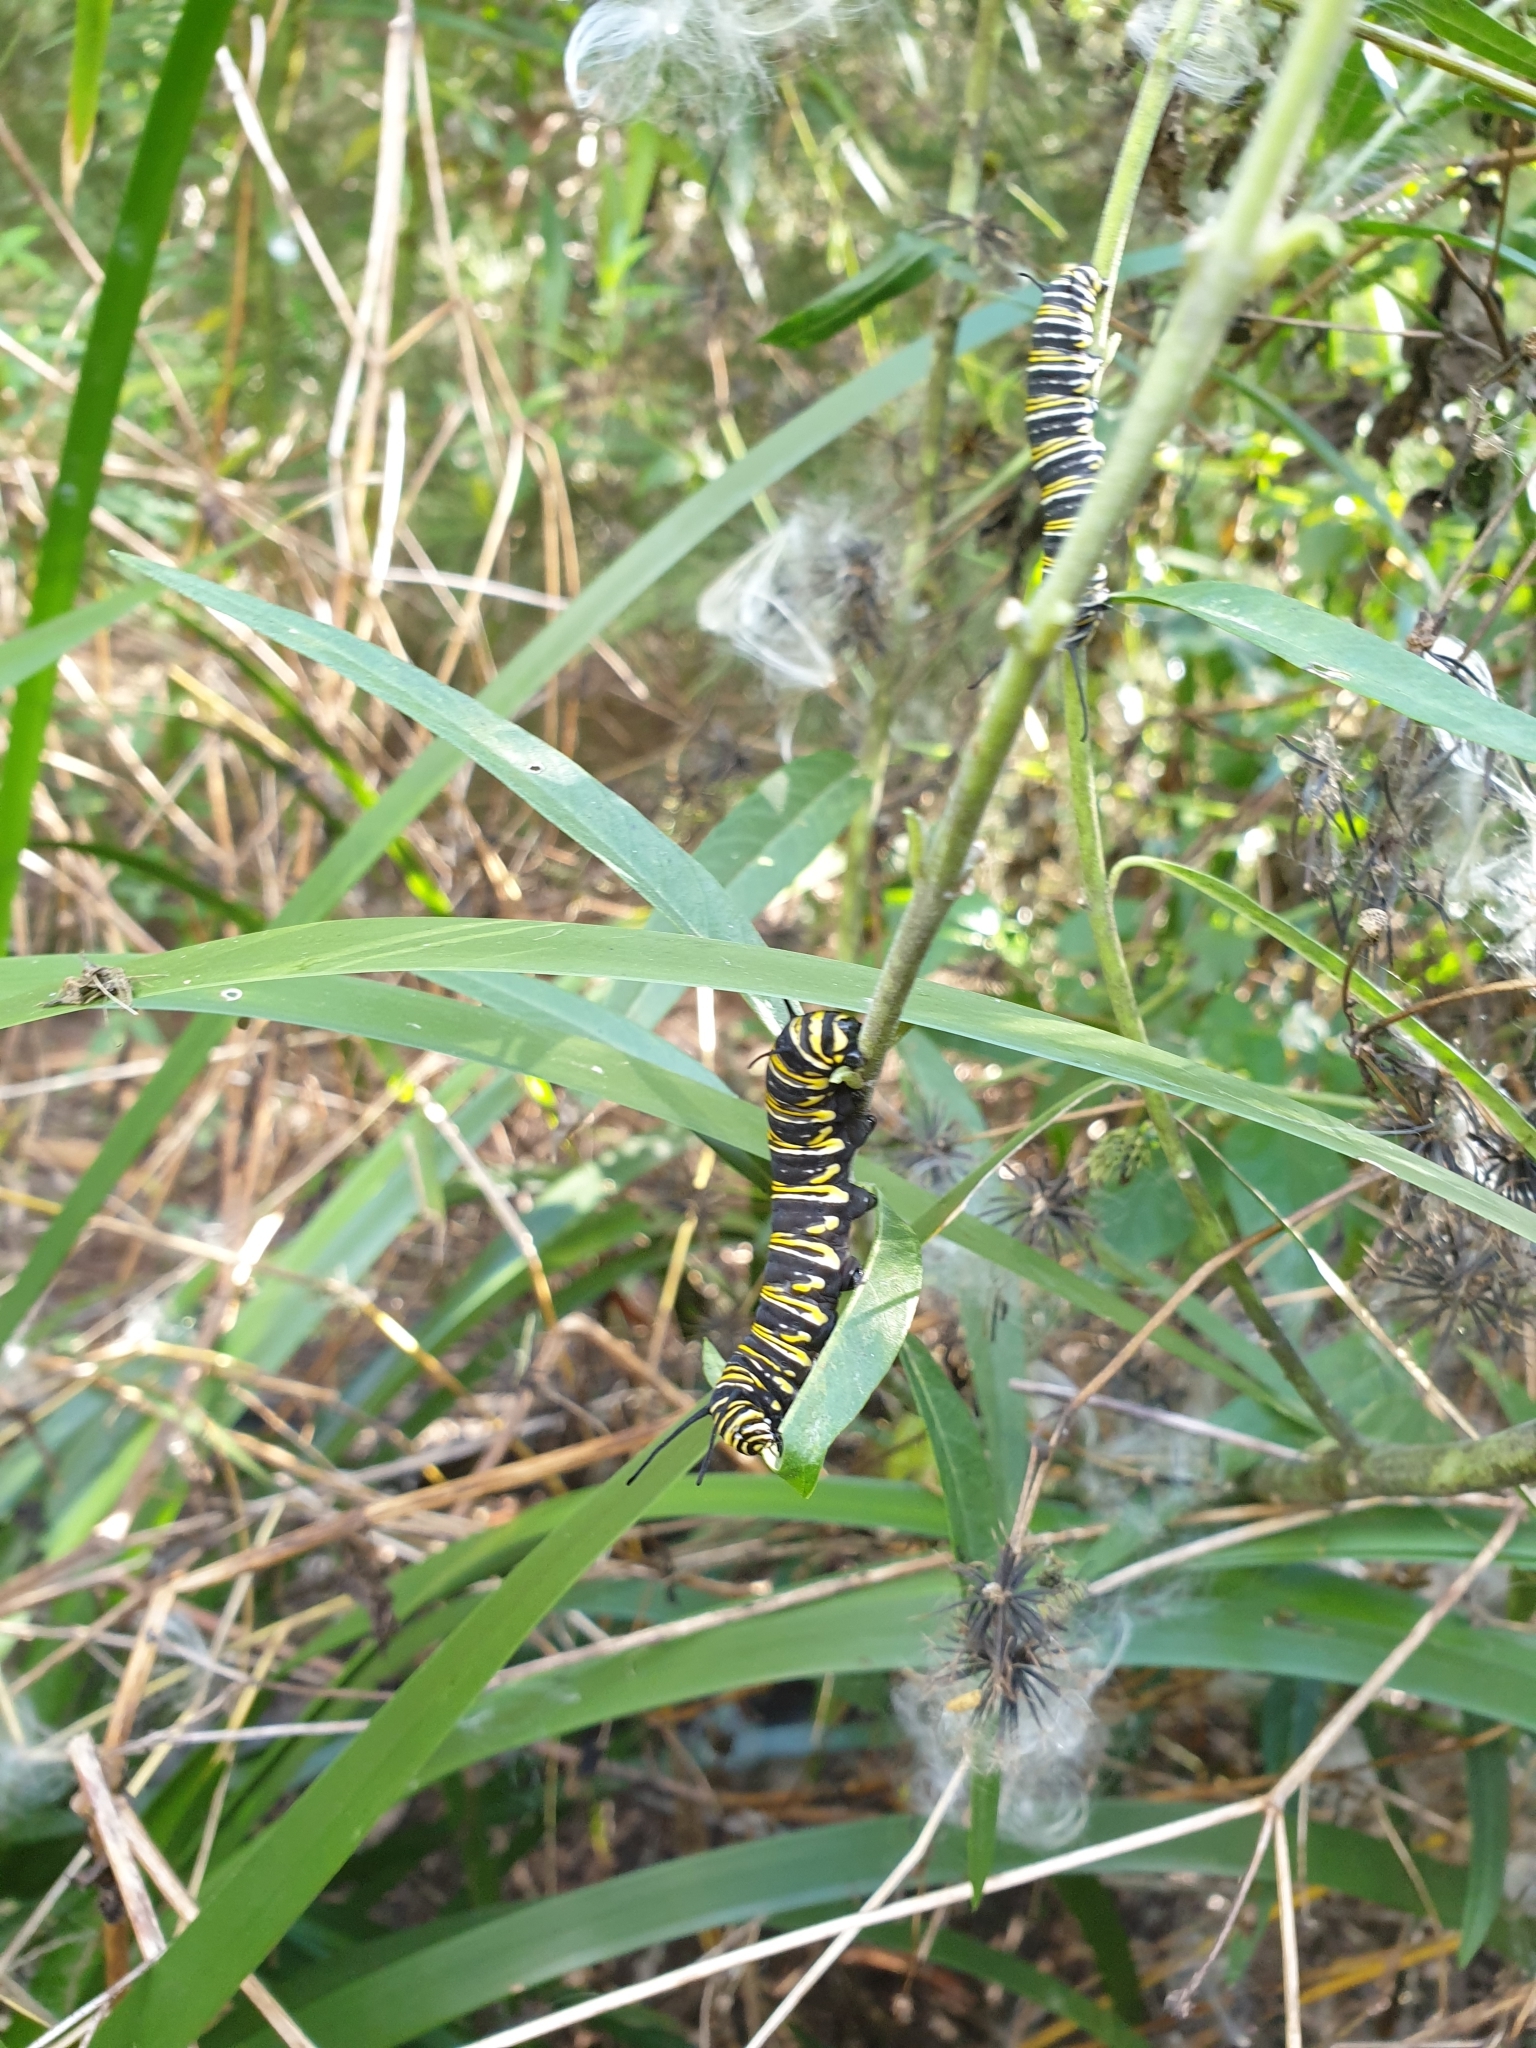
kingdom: Animalia
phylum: Arthropoda
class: Insecta
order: Lepidoptera
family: Nymphalidae
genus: Danaus
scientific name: Danaus plexippus
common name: Monarch
